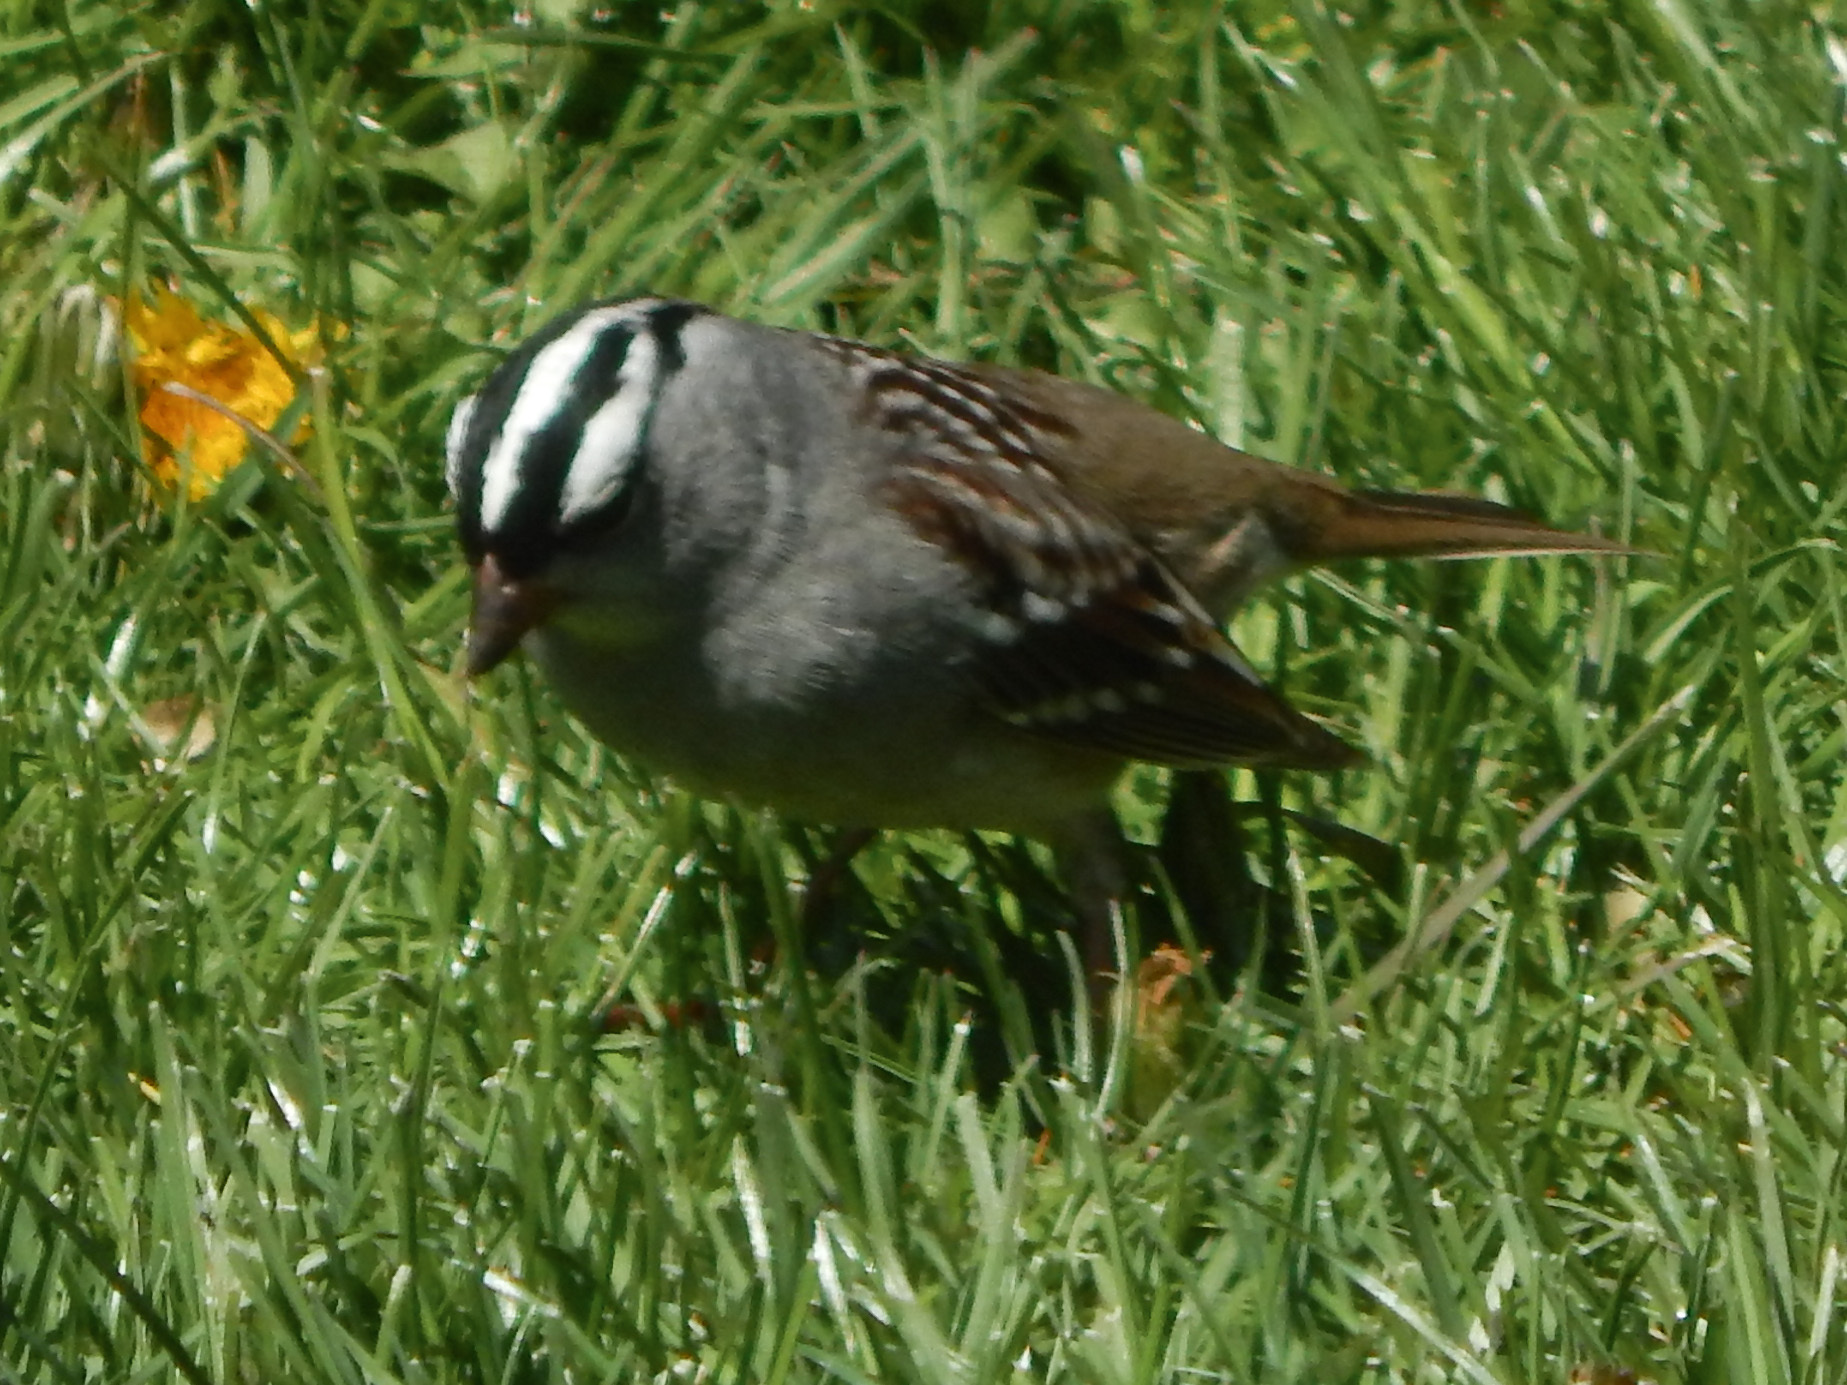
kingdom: Animalia
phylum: Chordata
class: Aves
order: Passeriformes
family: Passerellidae
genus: Zonotrichia
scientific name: Zonotrichia leucophrys
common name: White-crowned sparrow
